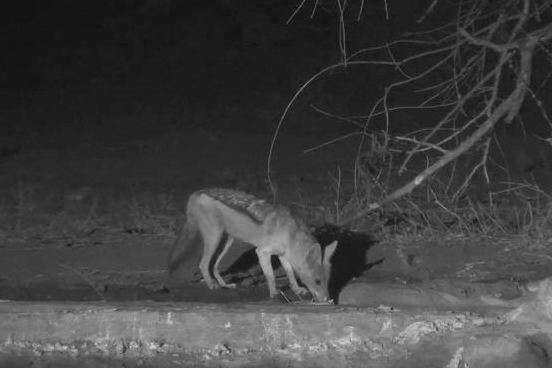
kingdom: Animalia
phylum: Chordata
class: Mammalia
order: Carnivora
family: Canidae
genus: Lupulella
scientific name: Lupulella
